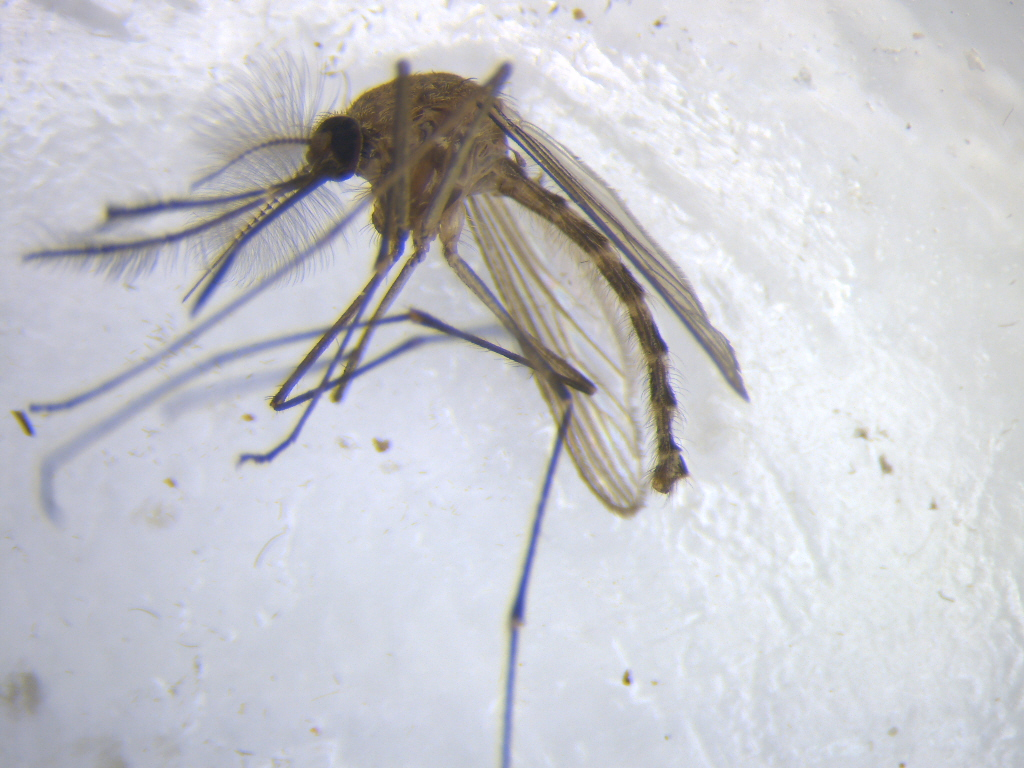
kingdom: Animalia
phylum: Arthropoda
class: Insecta
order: Diptera
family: Culicidae
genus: Culex
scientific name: Culex pervigilans
